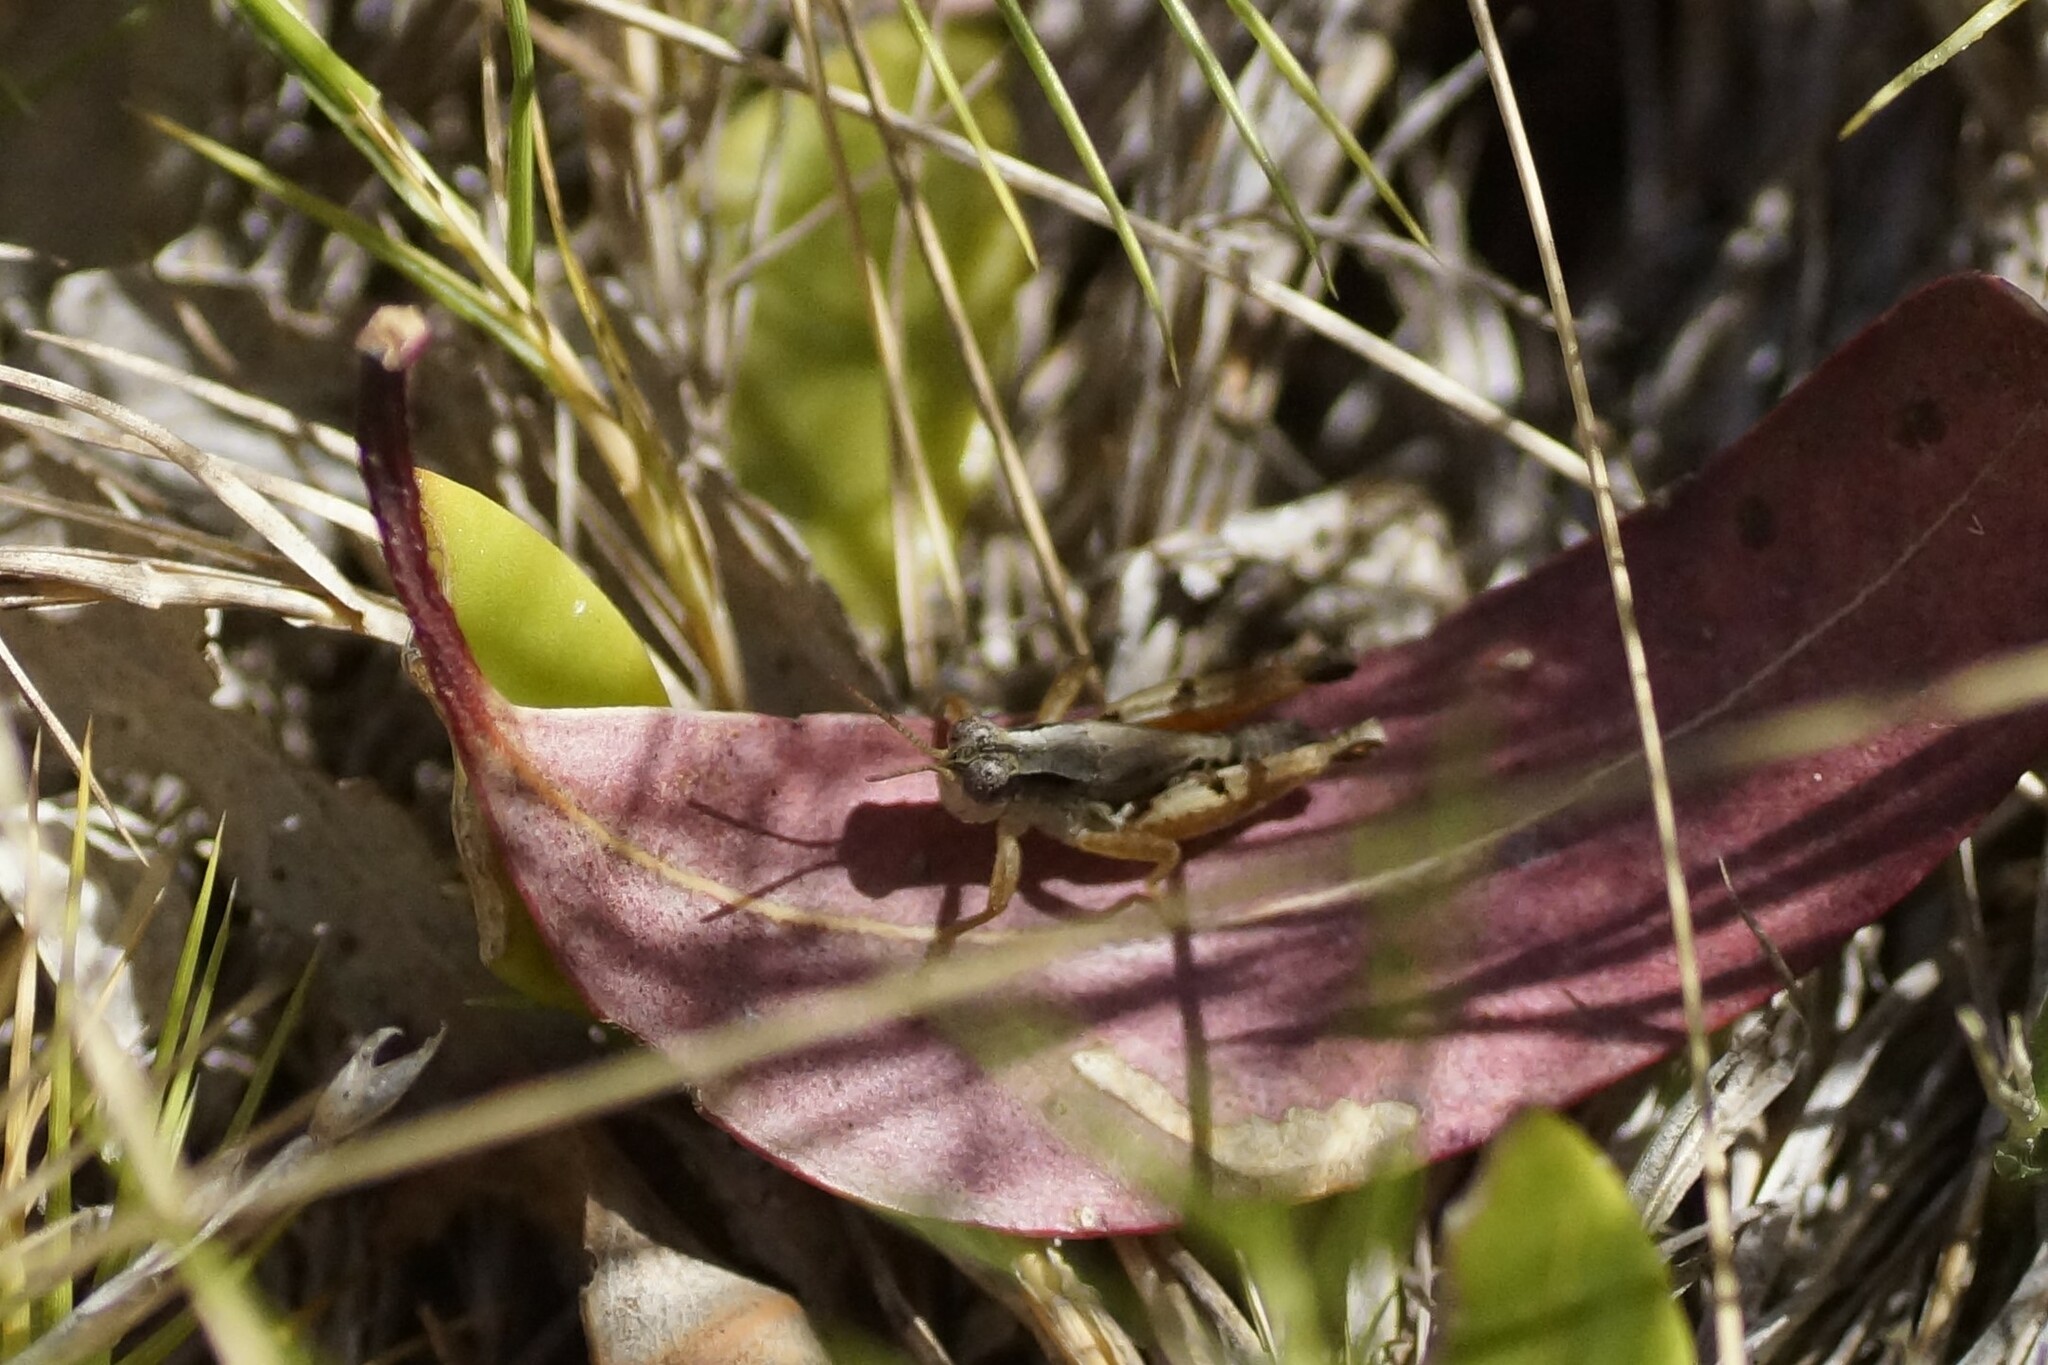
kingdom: Animalia
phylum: Arthropoda
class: Insecta
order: Orthoptera
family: Acrididae
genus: Phaulacridium
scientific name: Phaulacridium vittatum
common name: Wingless grasshopper
